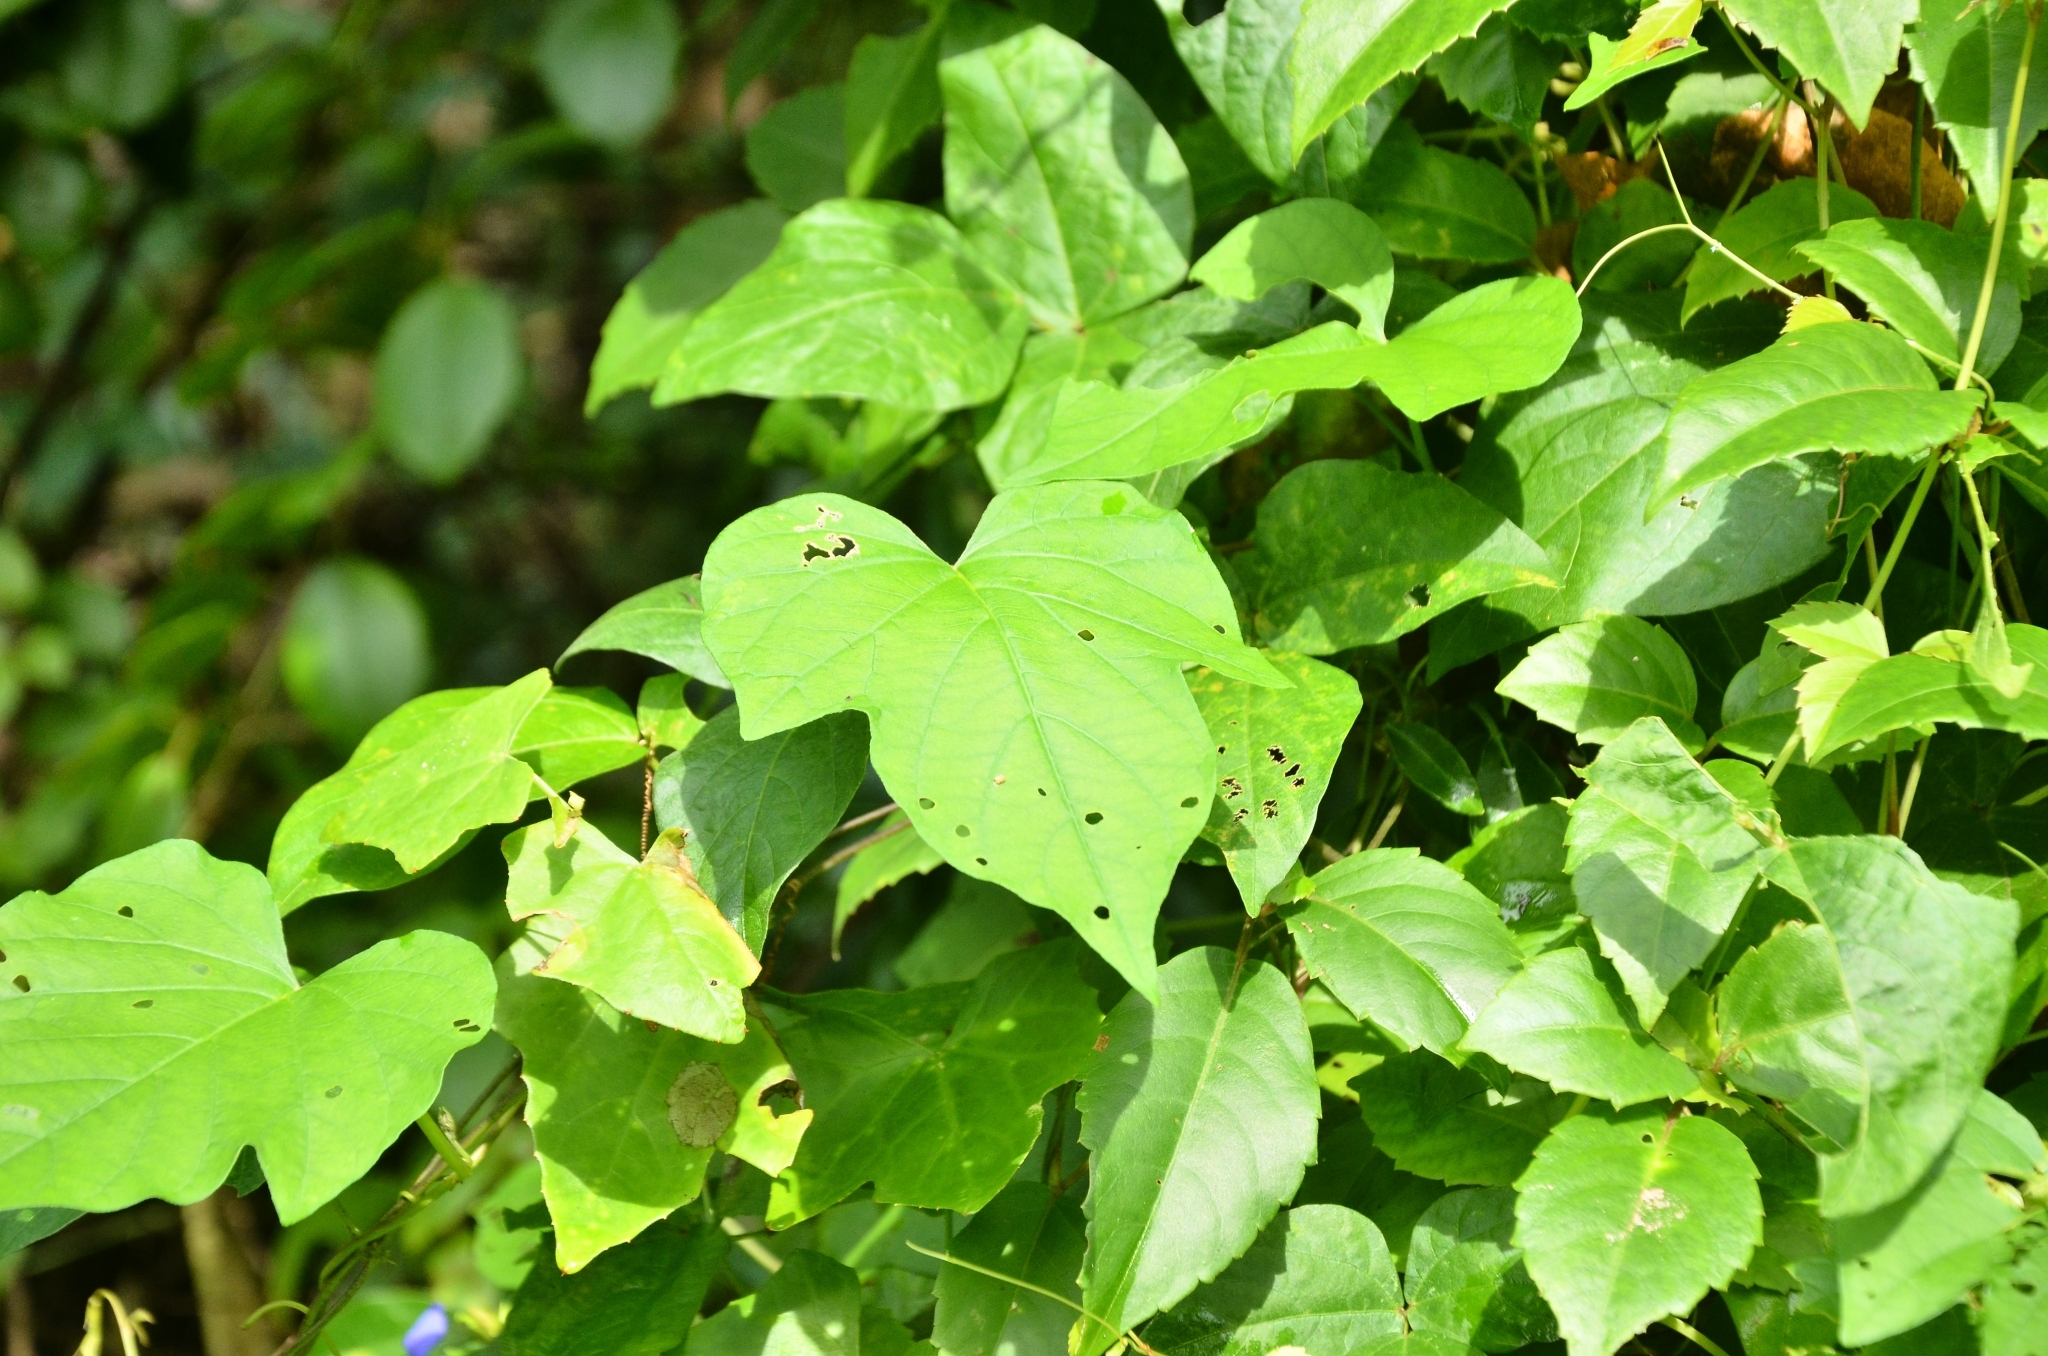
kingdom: Plantae
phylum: Tracheophyta
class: Magnoliopsida
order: Solanales
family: Convolvulaceae
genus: Ipomoea
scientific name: Ipomoea indica
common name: Blue dawnflower
